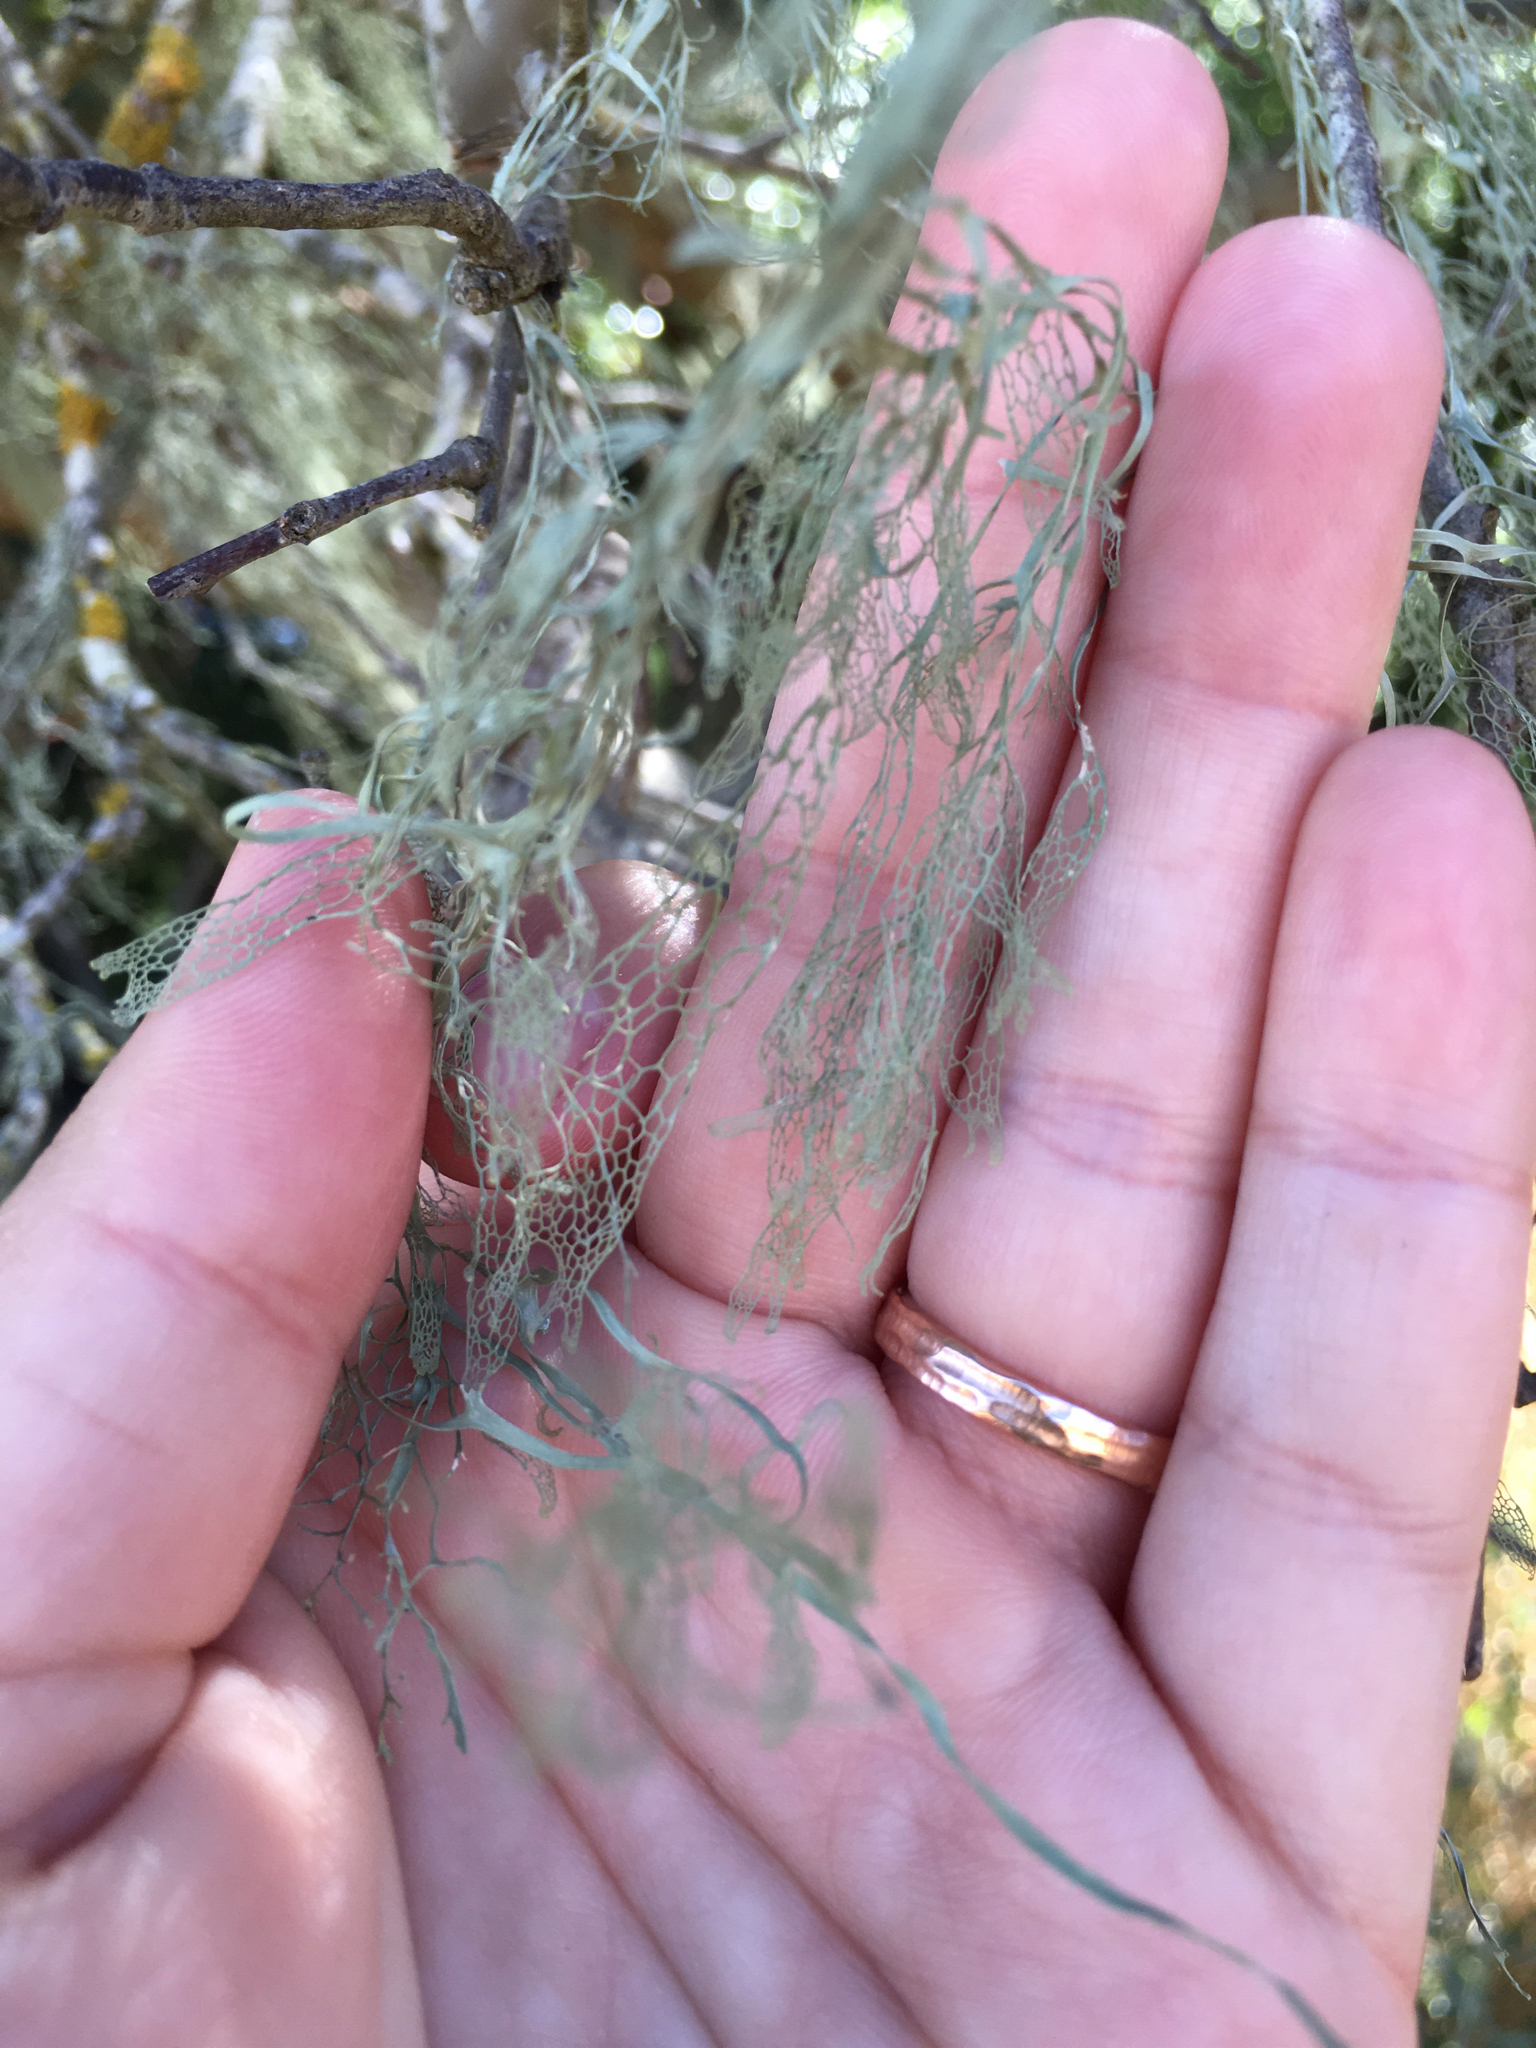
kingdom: Fungi
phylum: Ascomycota
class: Lecanoromycetes
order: Lecanorales
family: Ramalinaceae
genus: Ramalina
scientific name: Ramalina menziesii
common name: Lace lichen
